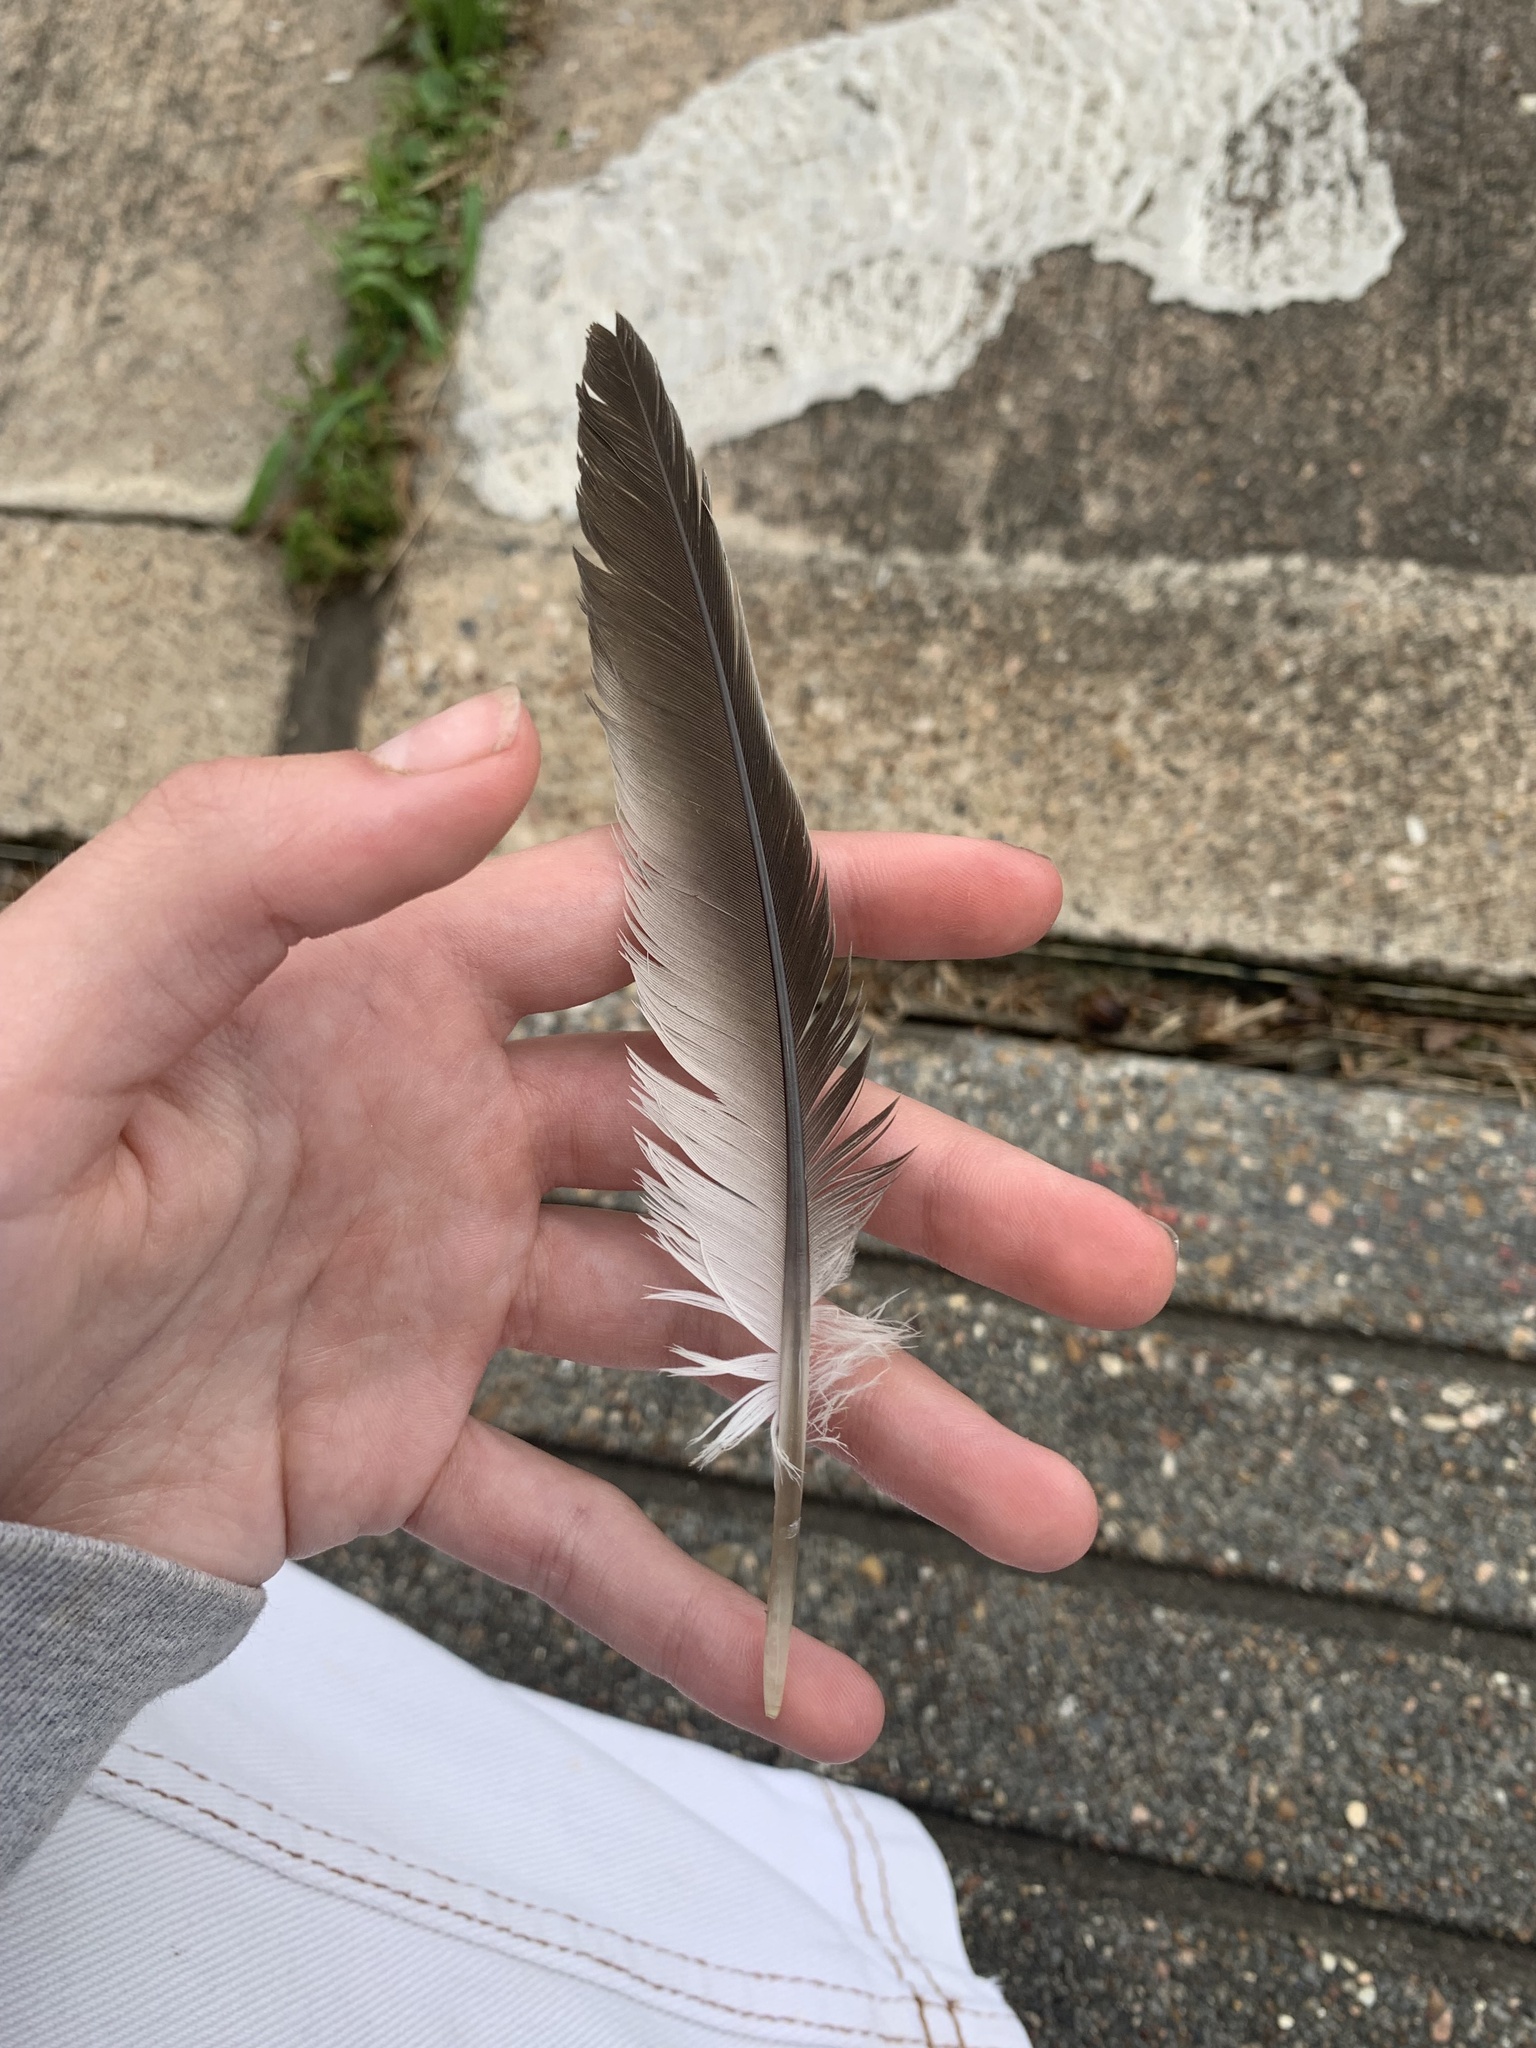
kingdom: Animalia
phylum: Chordata
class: Aves
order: Columbiformes
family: Columbidae
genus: Streptopelia
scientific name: Streptopelia decaocto
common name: Eurasian collared dove
